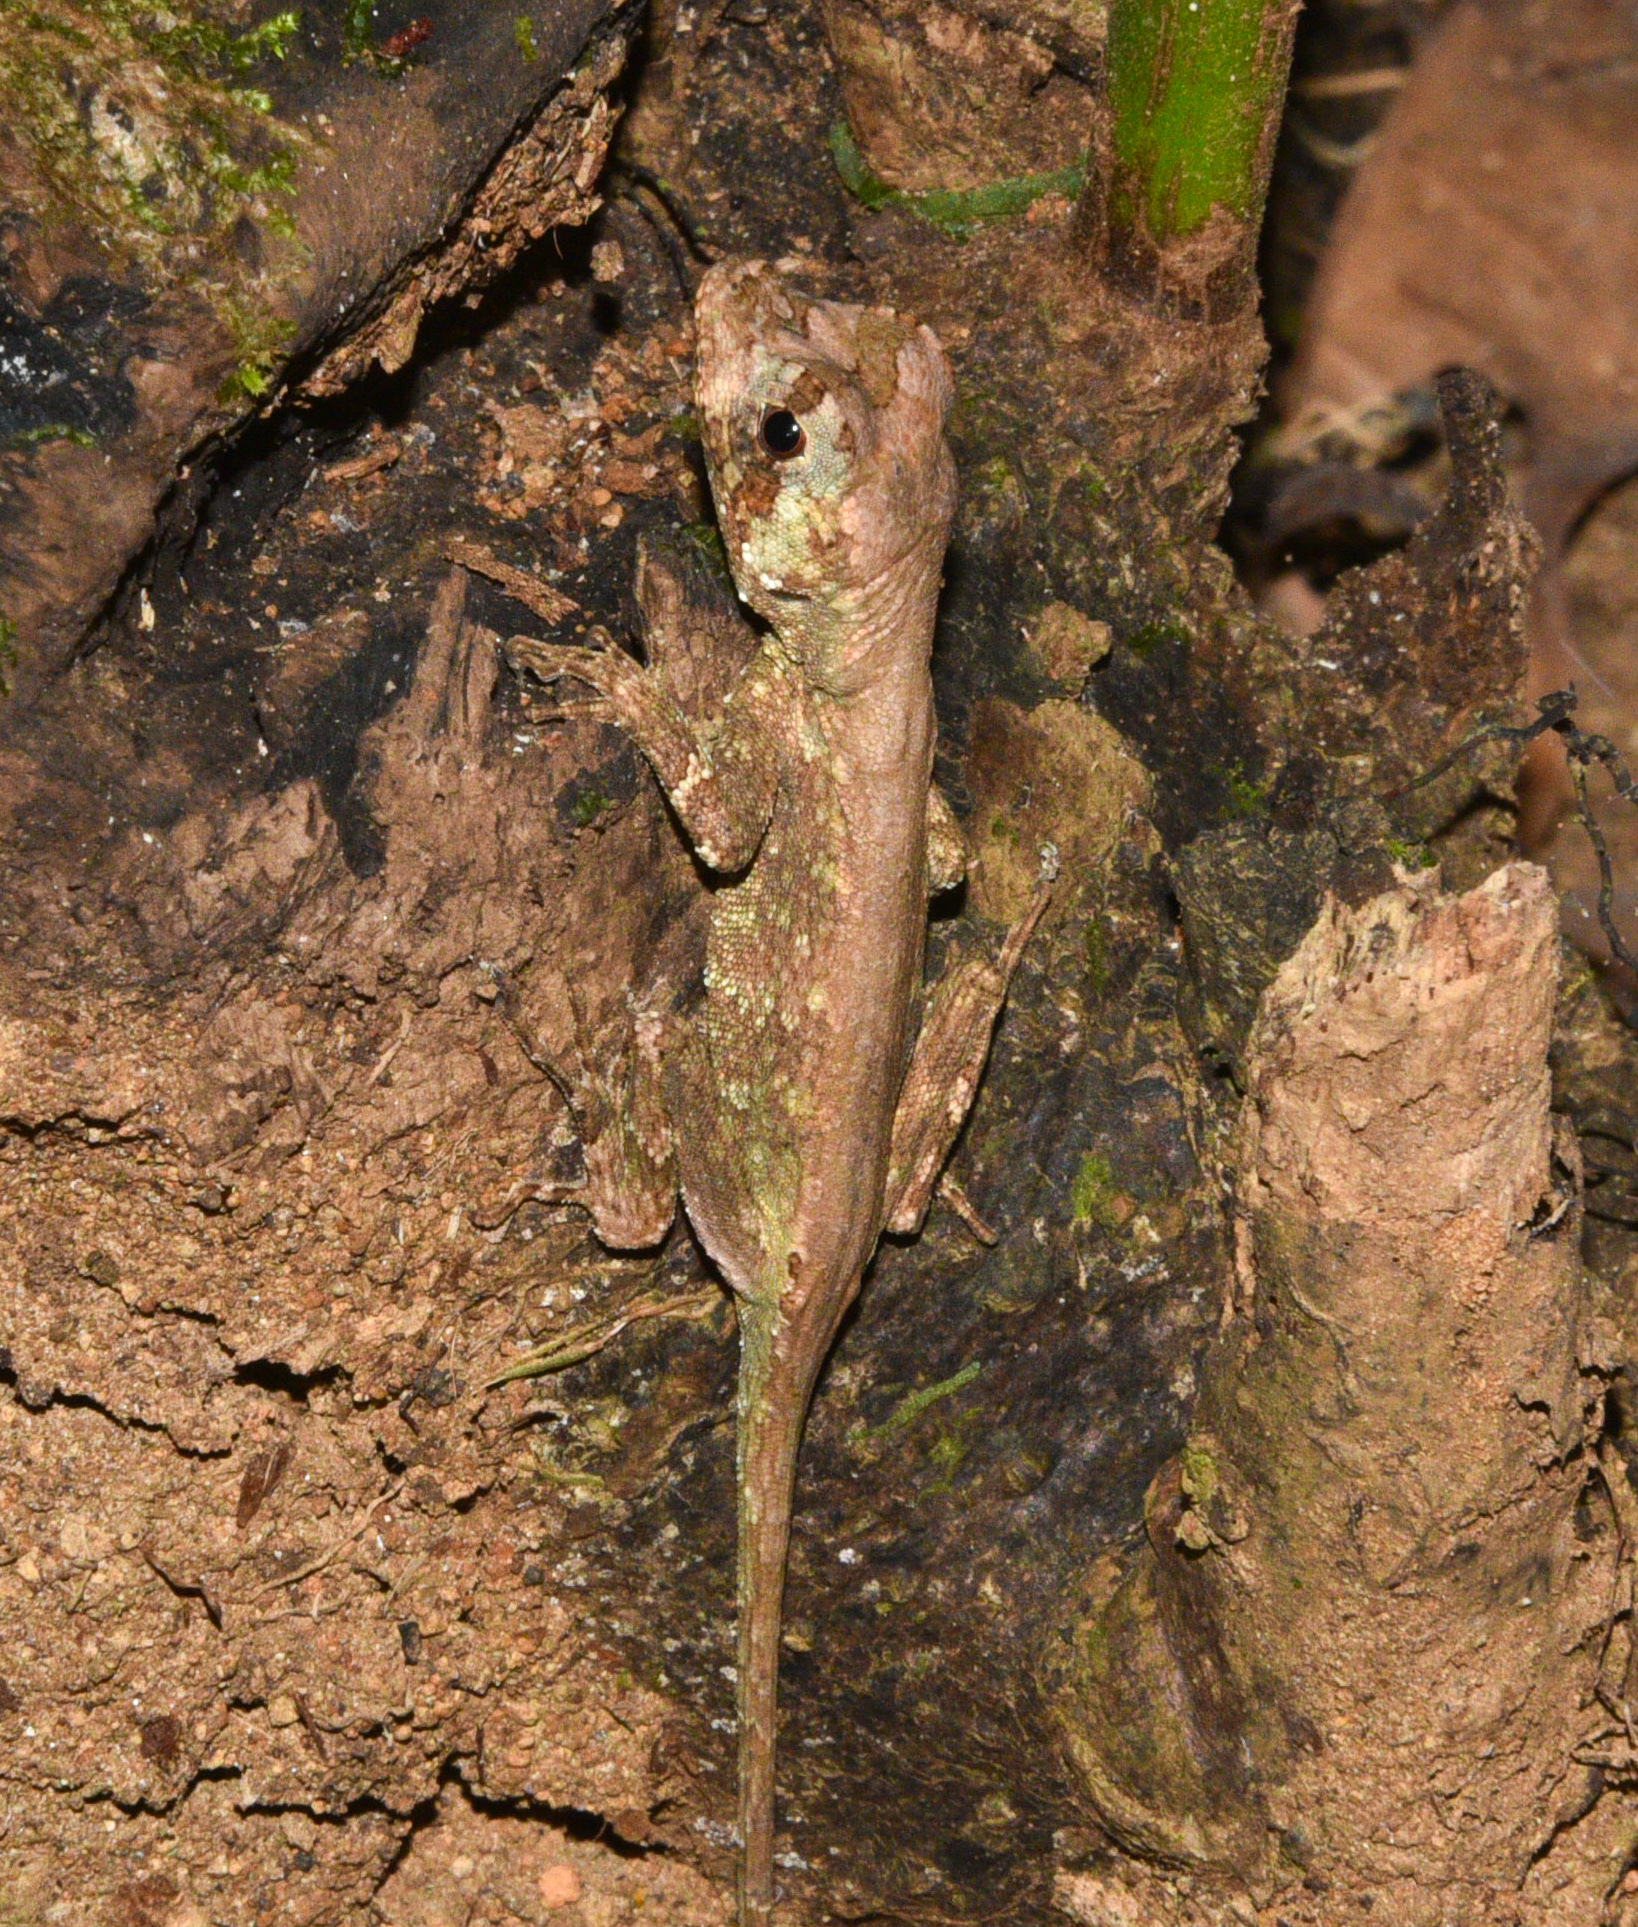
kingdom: Animalia
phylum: Chordata
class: Squamata
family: Dactyloidae
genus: Anolis
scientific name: Anolis capito
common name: Bighead anole
